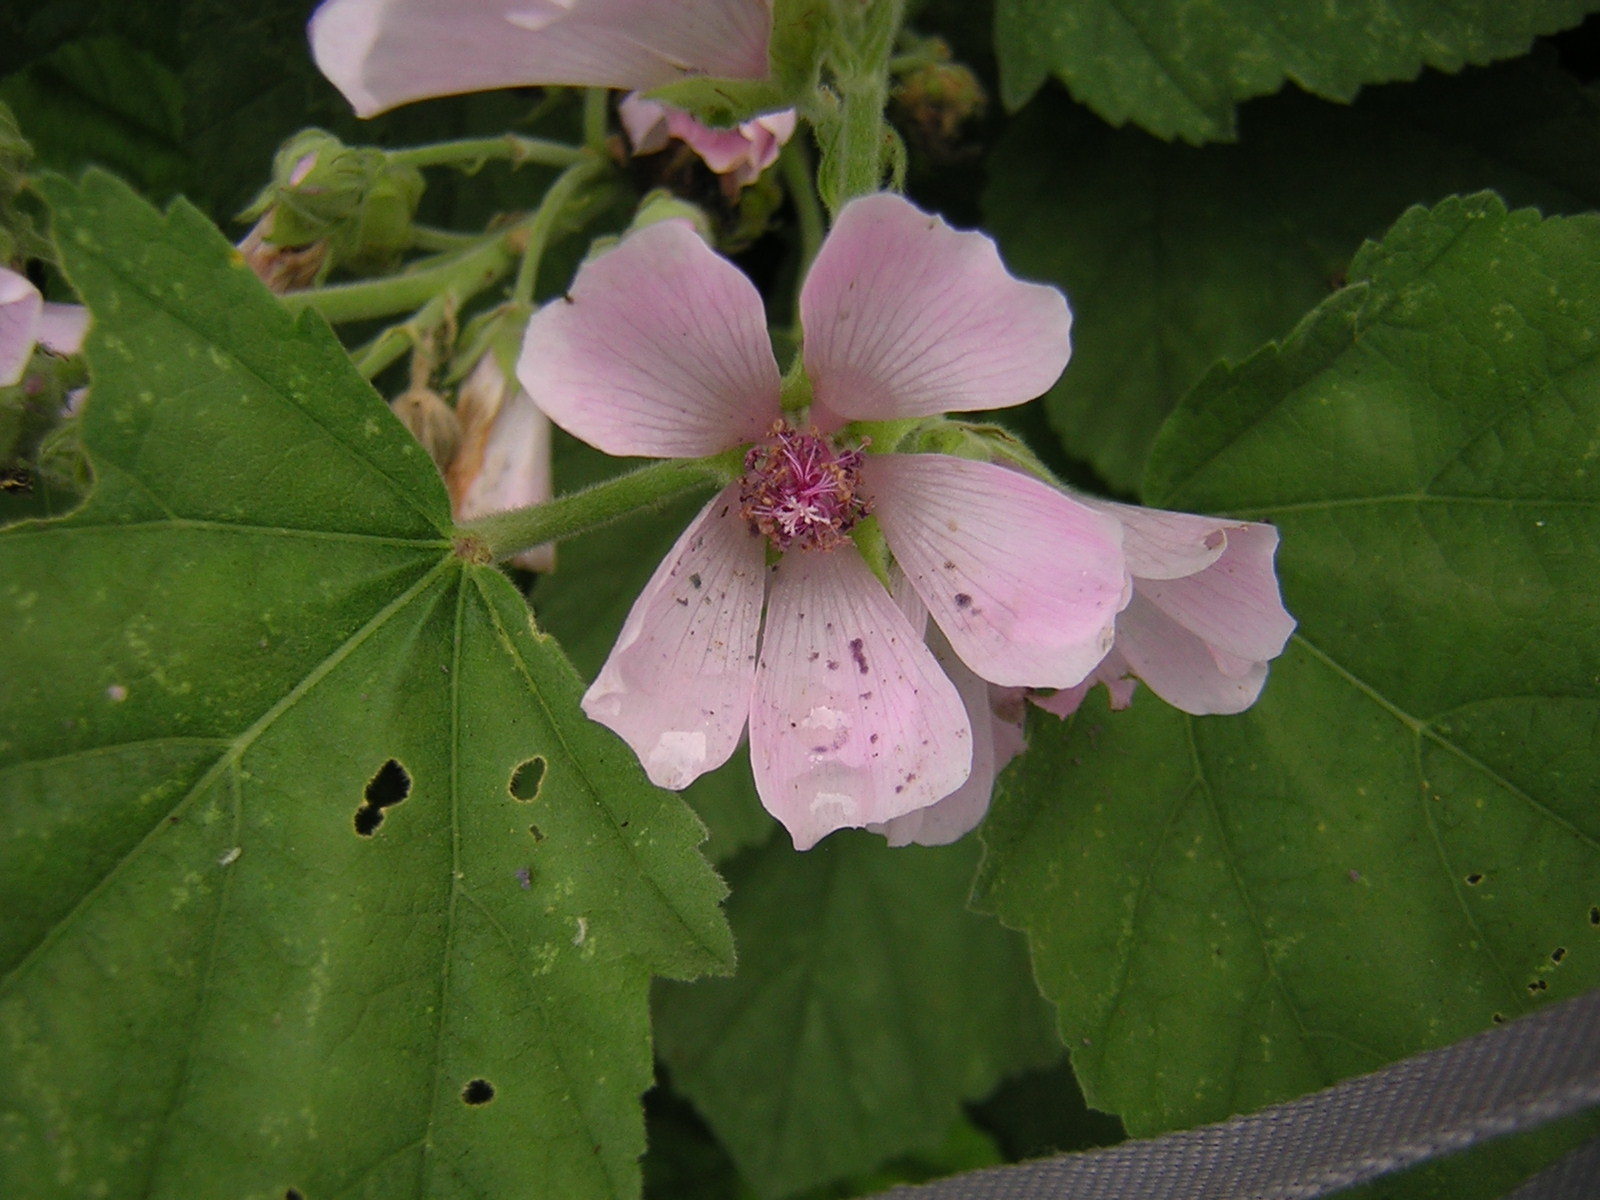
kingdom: Plantae
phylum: Tracheophyta
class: Magnoliopsida
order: Malvales
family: Malvaceae
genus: Althaea
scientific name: Althaea officinalis
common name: Marsh-mallow
